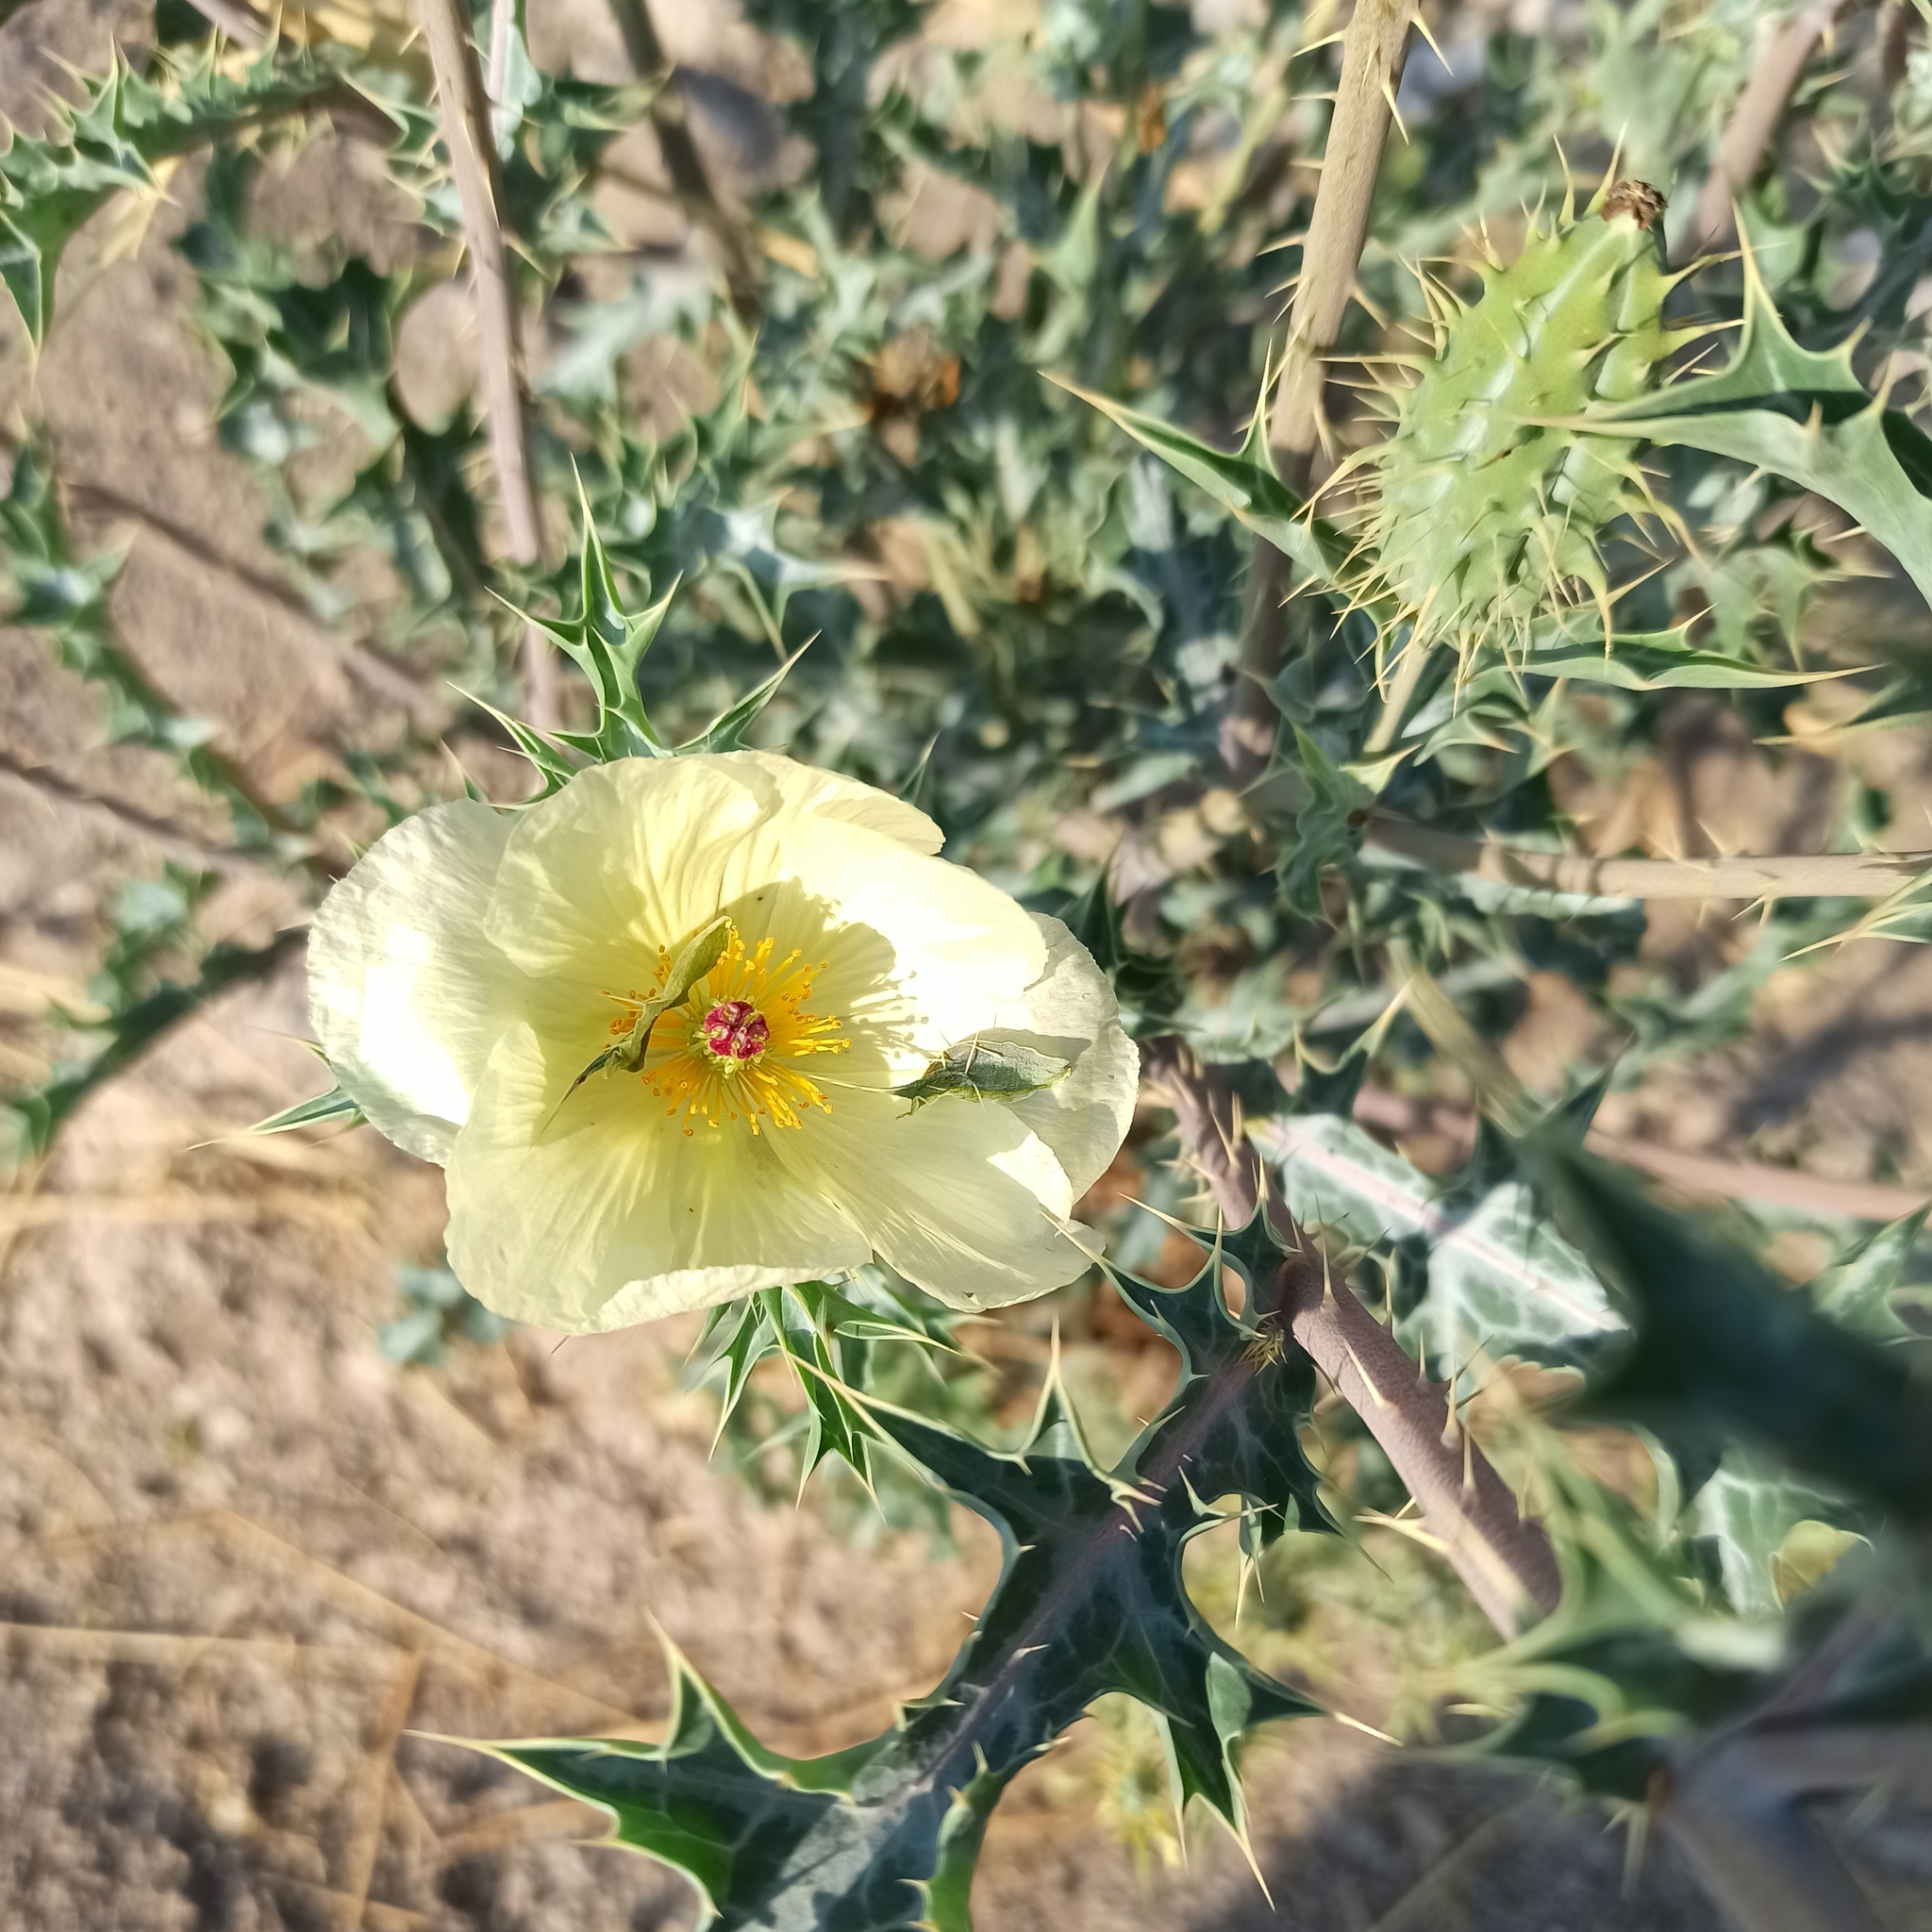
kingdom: Plantae
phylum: Tracheophyta
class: Magnoliopsida
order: Ranunculales
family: Papaveraceae
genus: Argemone
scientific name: Argemone ochroleuca
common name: White-flower mexican-poppy
